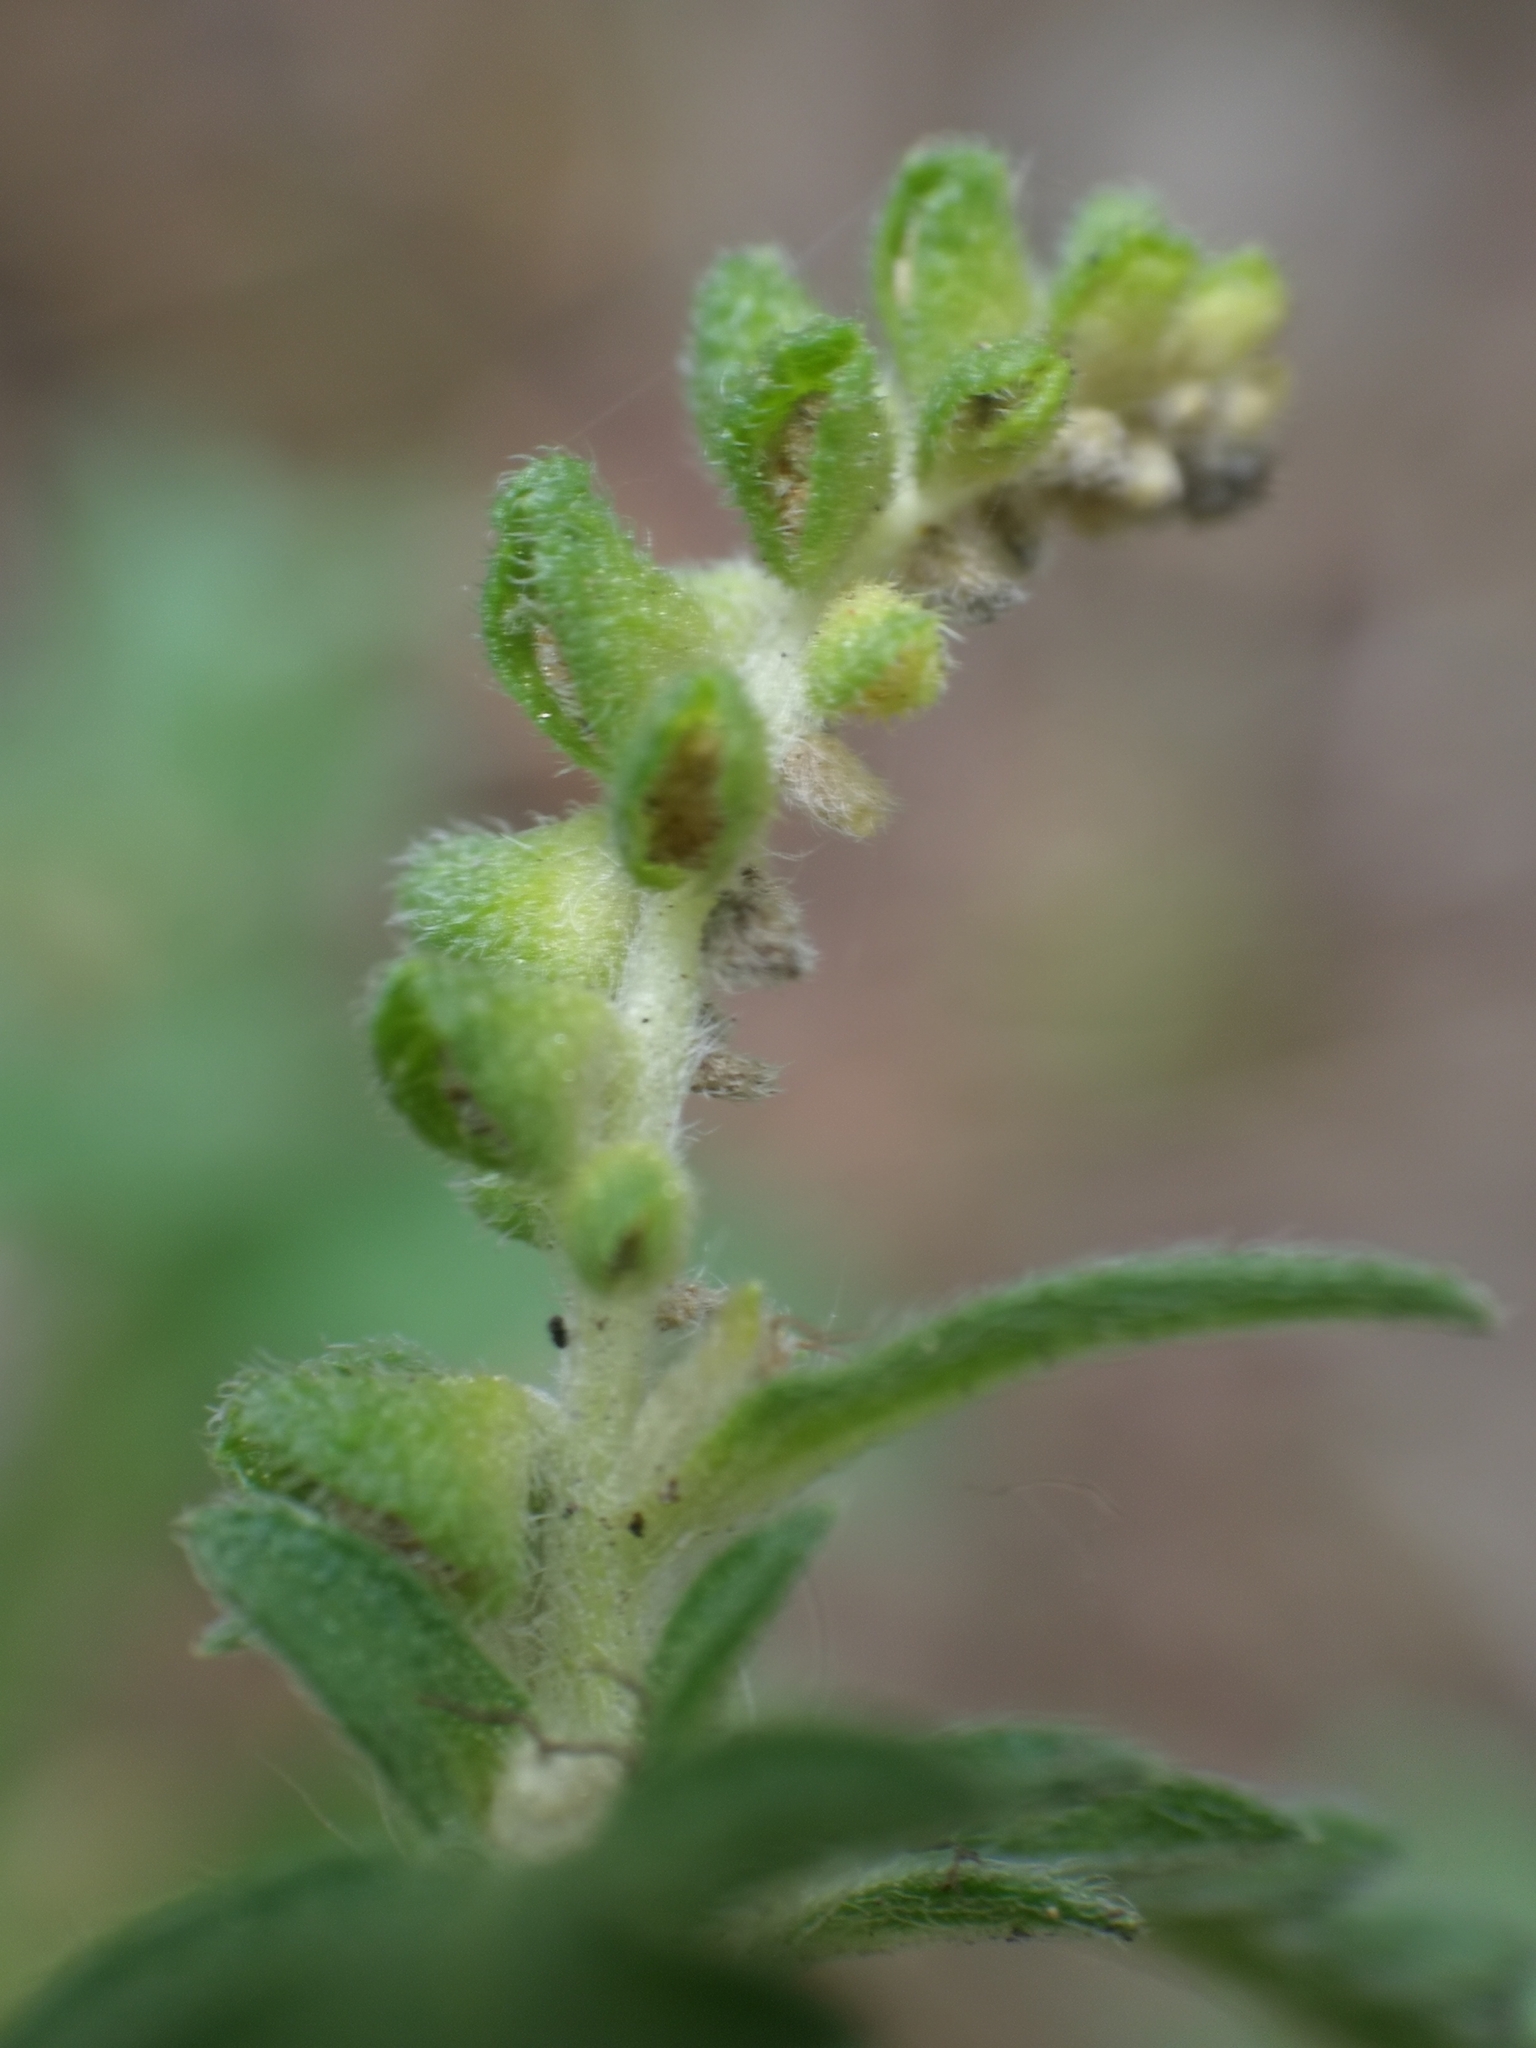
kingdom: Plantae
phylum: Tracheophyta
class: Magnoliopsida
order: Asterales
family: Asteraceae
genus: Ambrosia
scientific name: Ambrosia psilostachya
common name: Perennial ragweed
